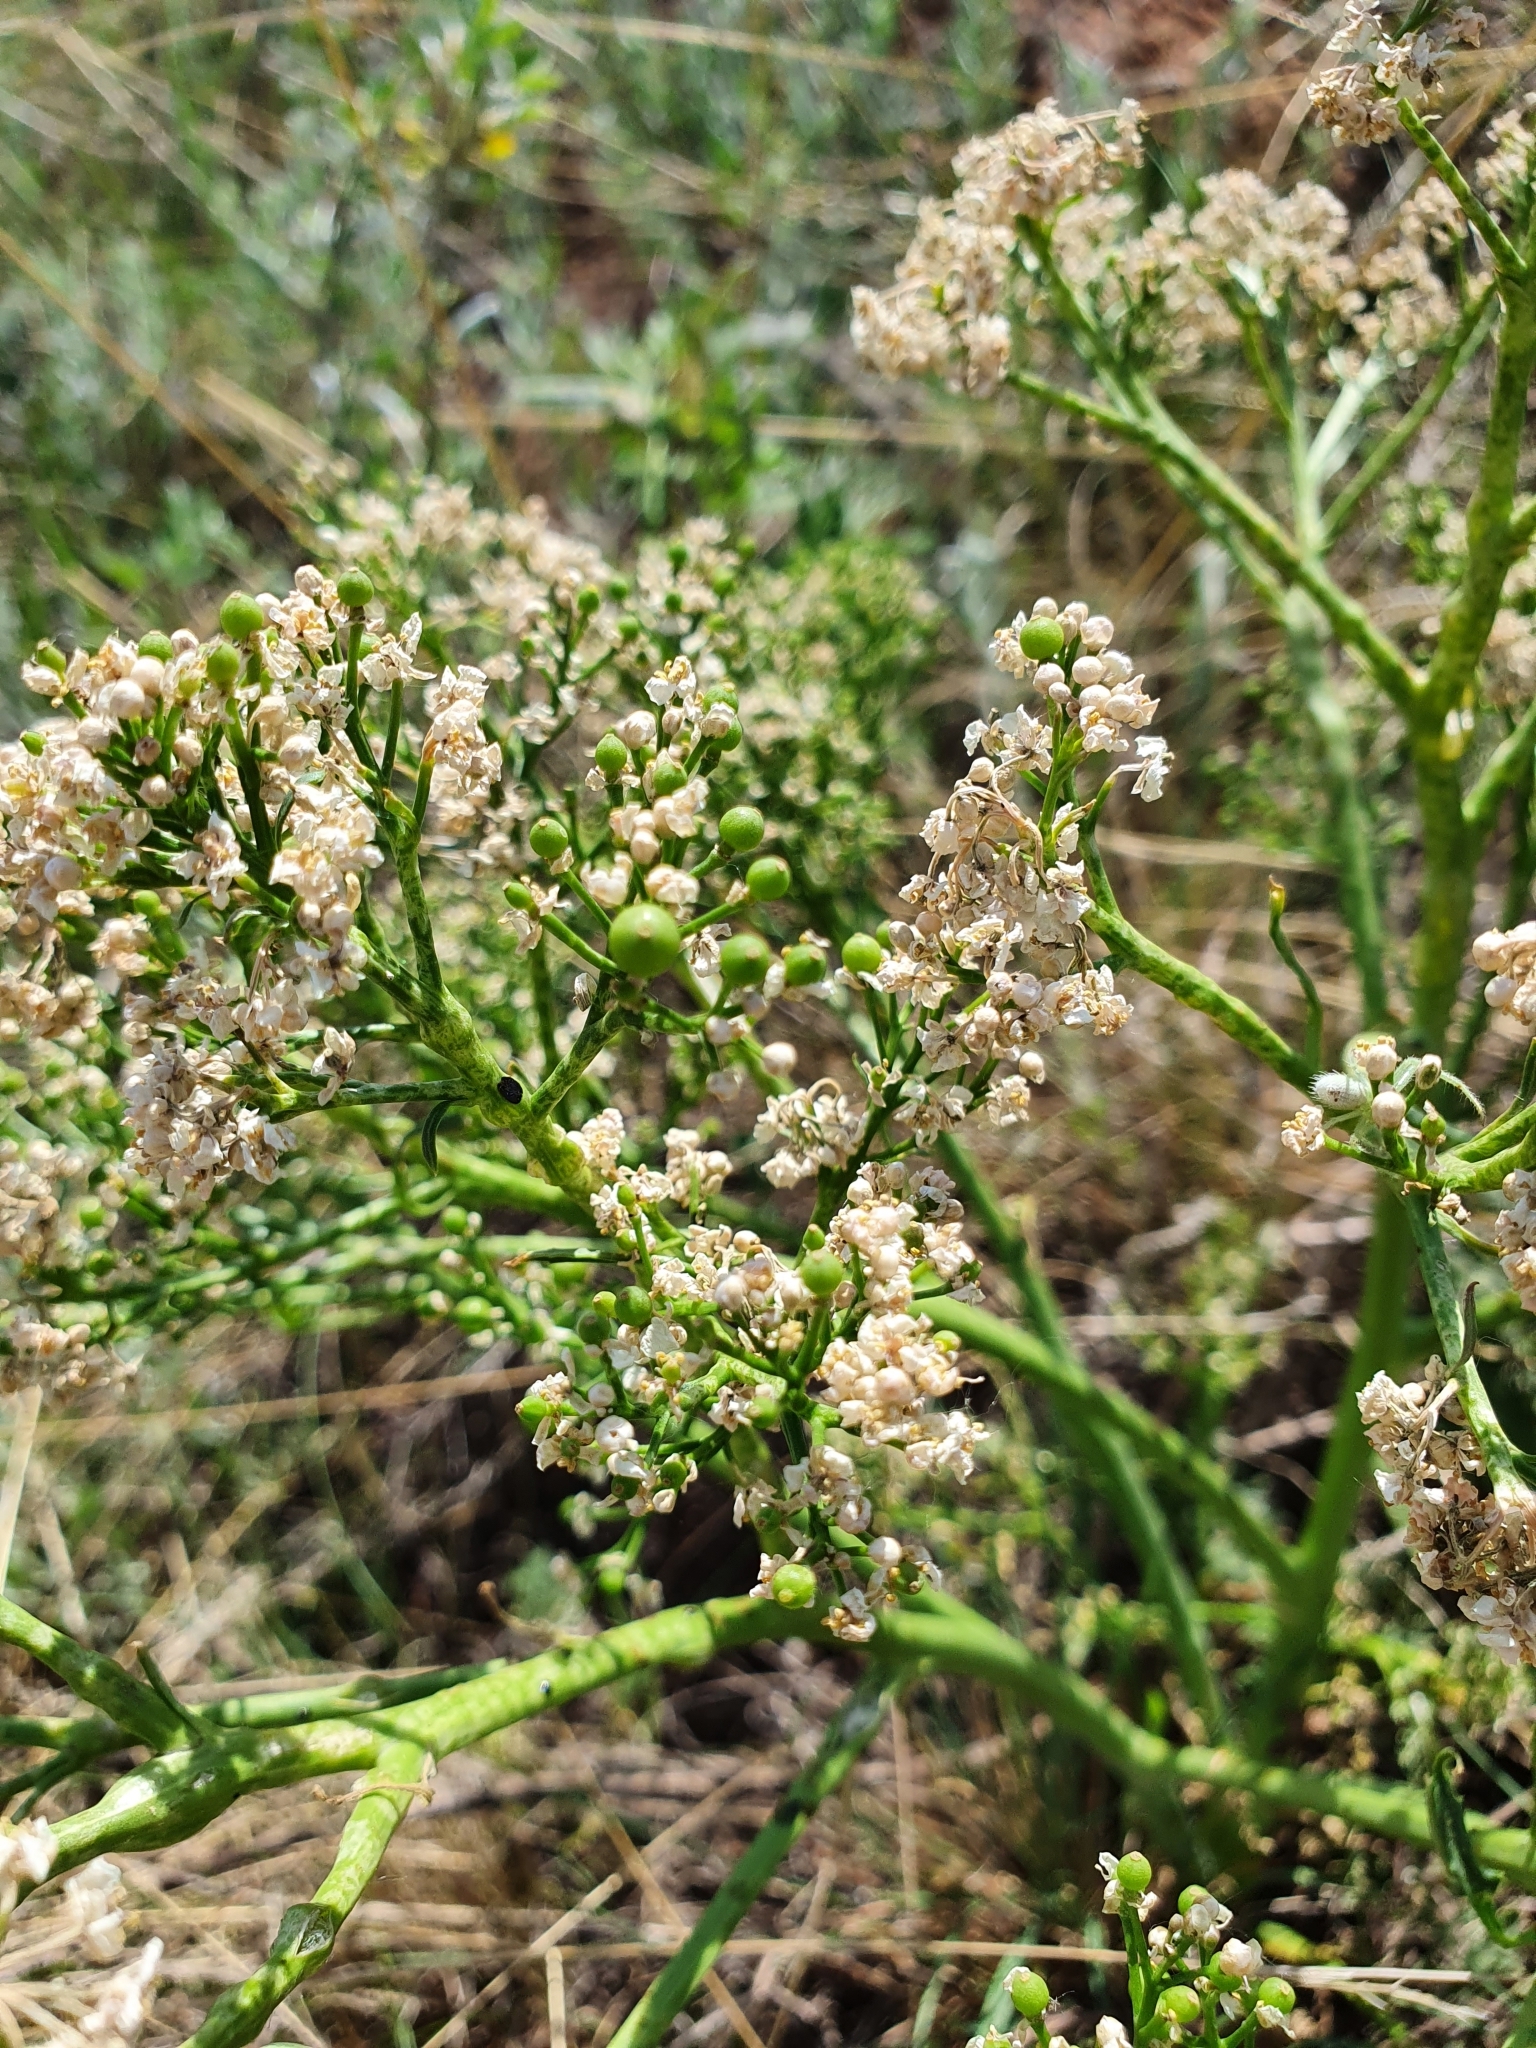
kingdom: Plantae
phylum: Tracheophyta
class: Magnoliopsida
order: Brassicales
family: Brassicaceae
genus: Crambe
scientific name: Crambe tataria
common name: Tartarian breadplant
